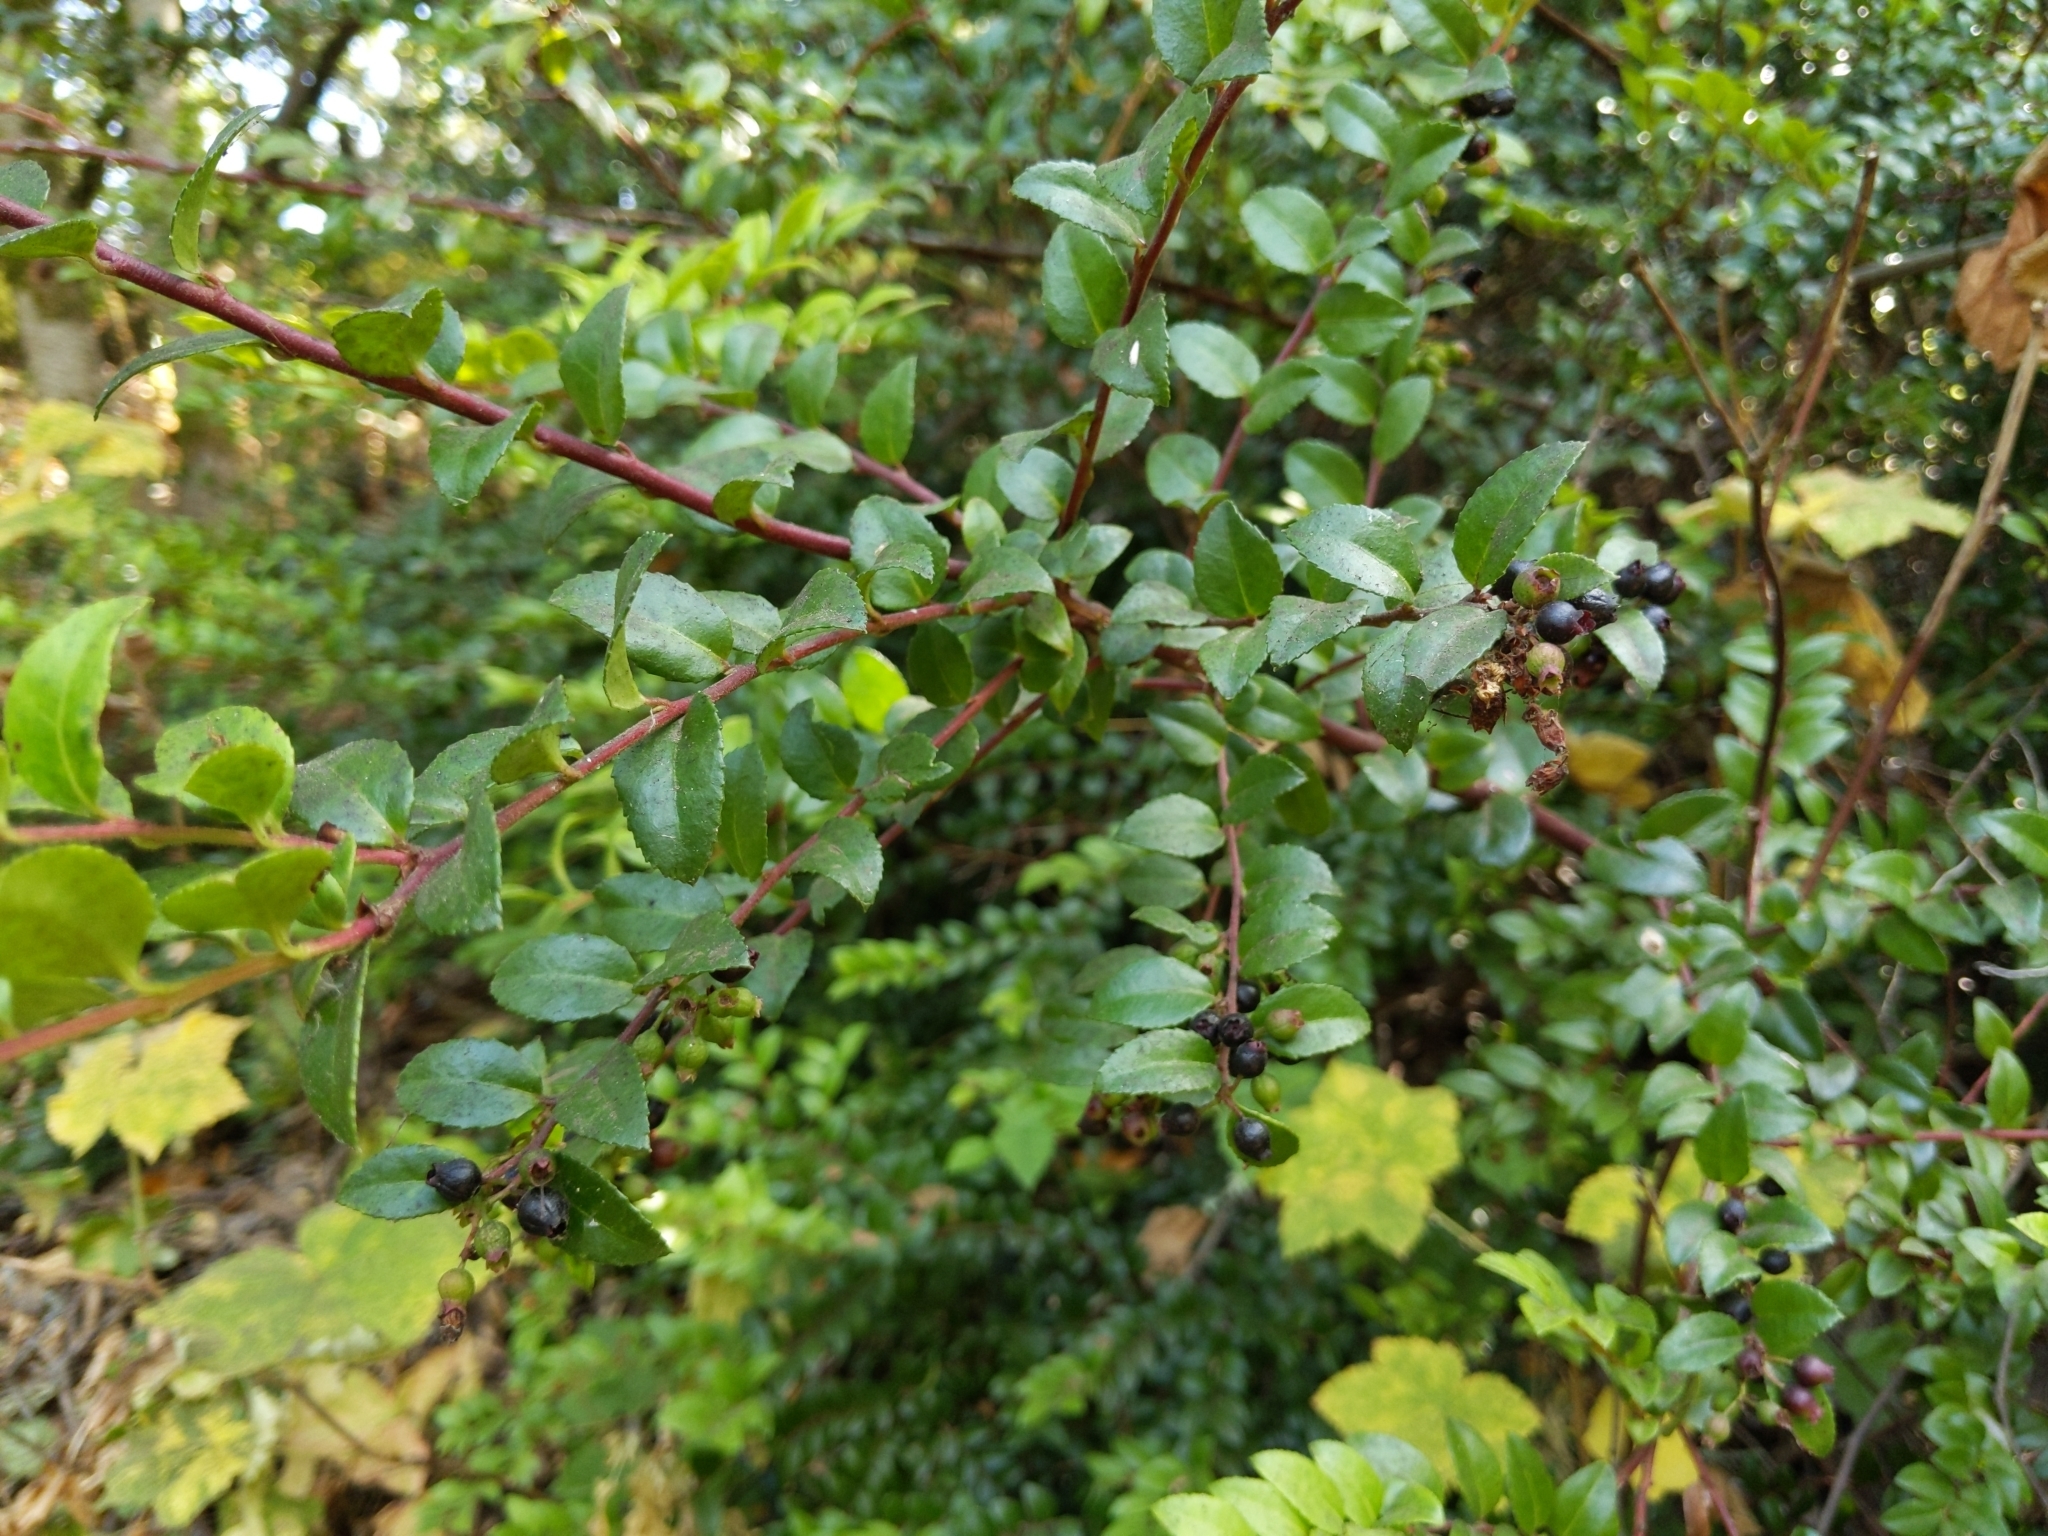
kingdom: Plantae
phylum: Tracheophyta
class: Magnoliopsida
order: Ericales
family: Ericaceae
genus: Vaccinium
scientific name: Vaccinium ovatum
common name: California-huckleberry
